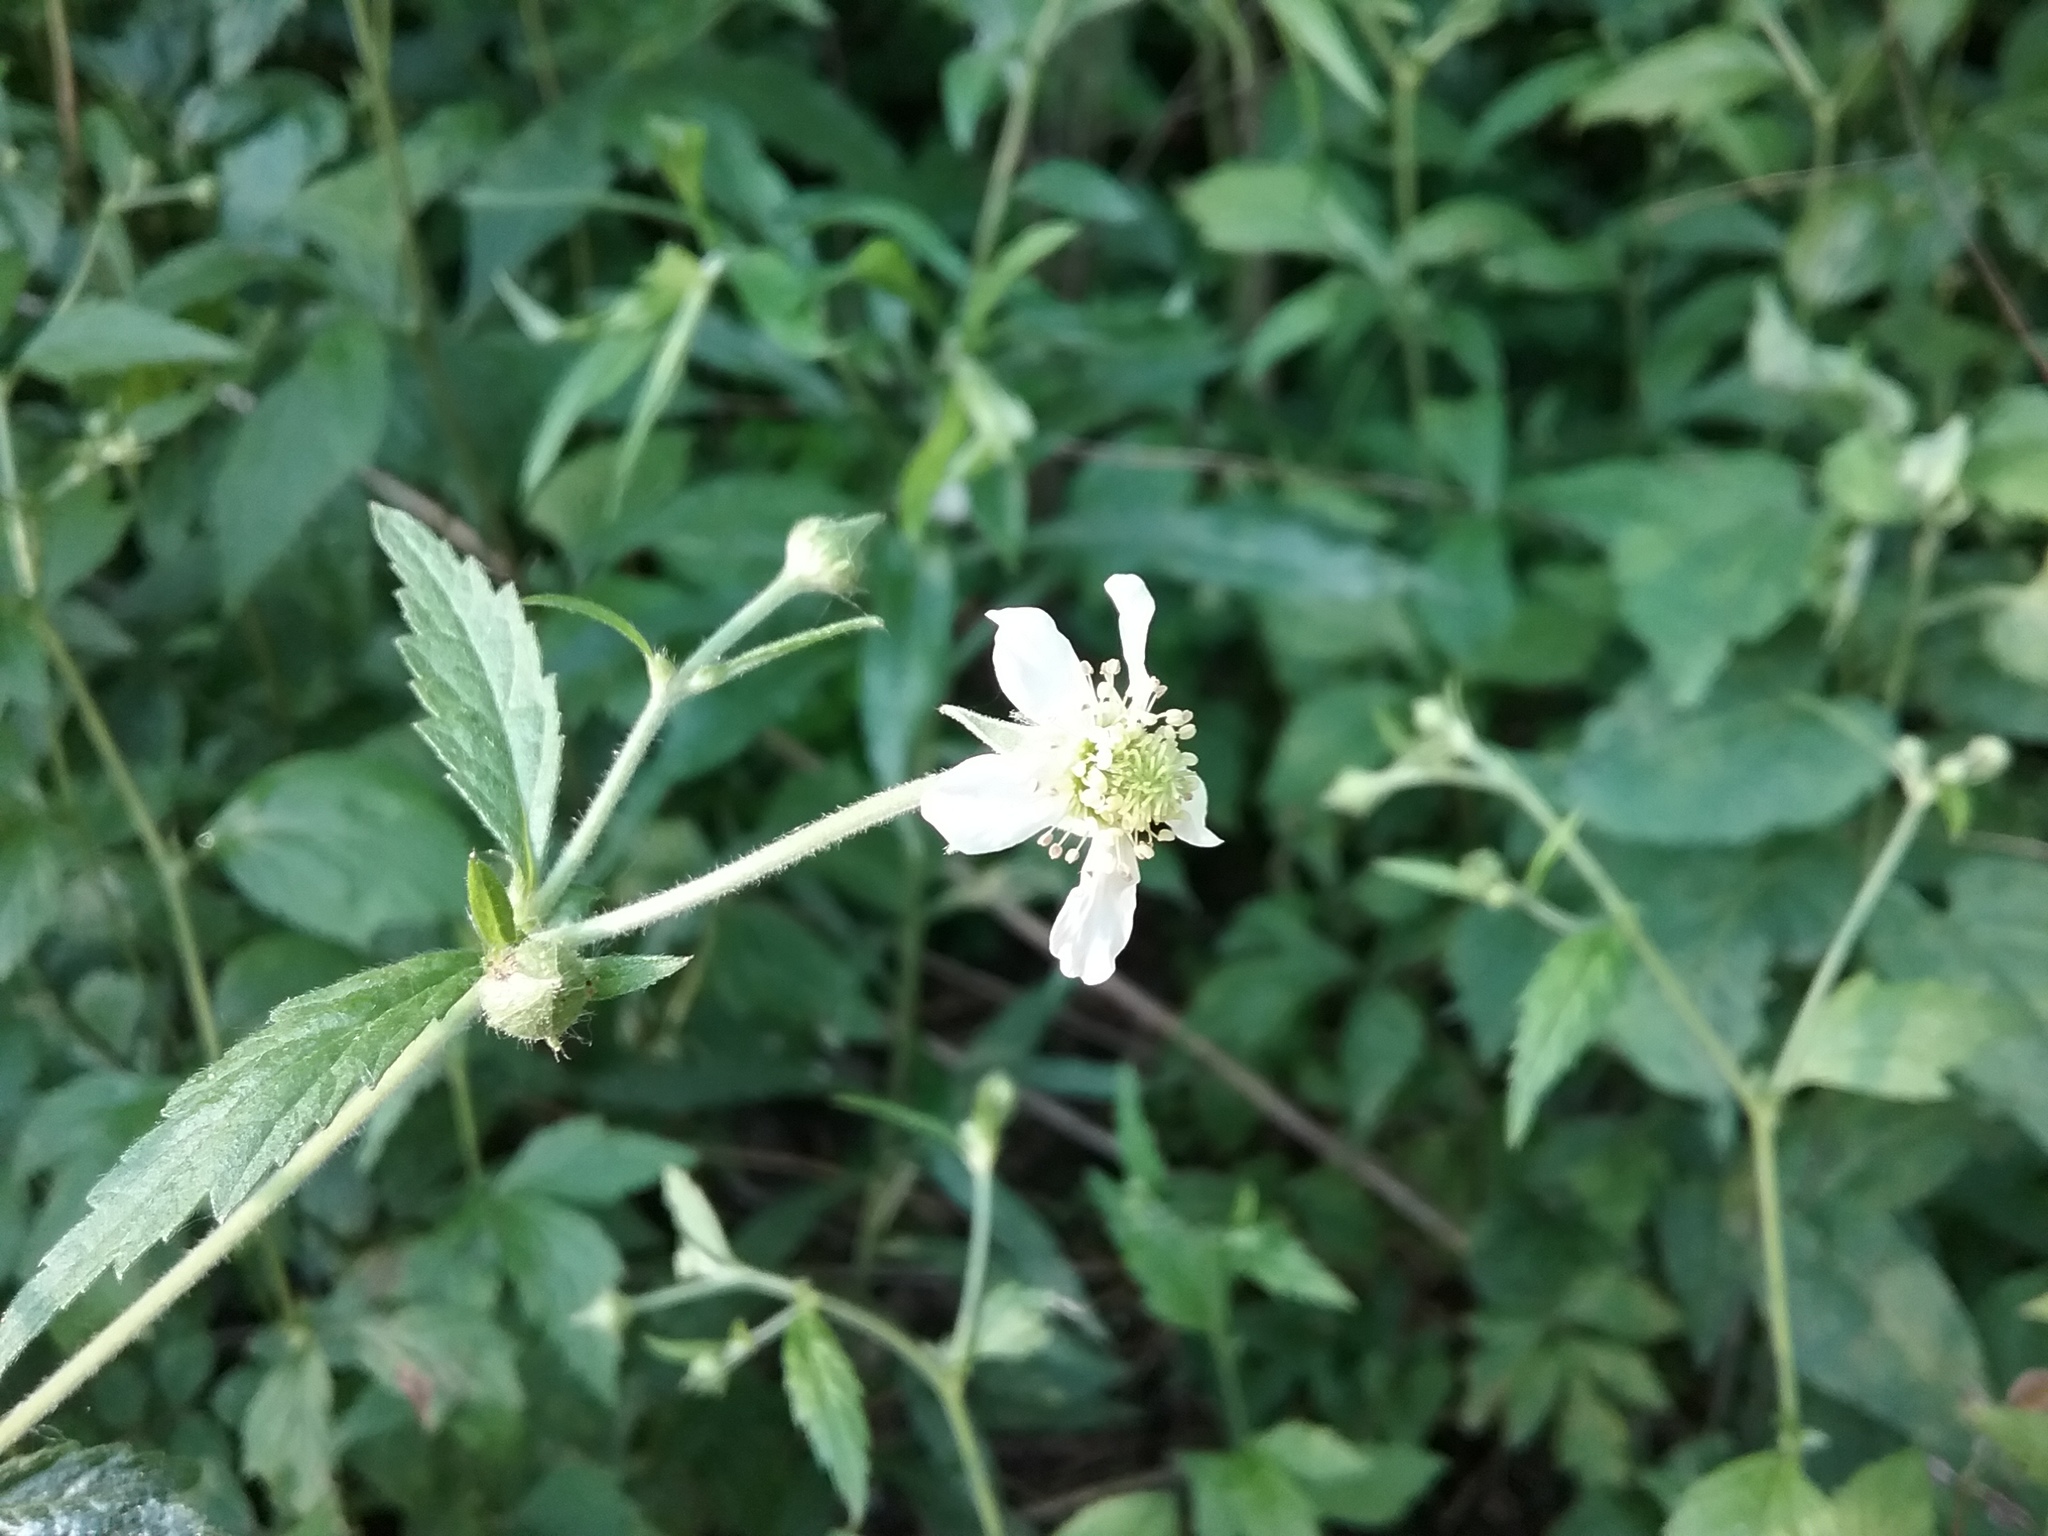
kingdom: Plantae
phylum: Tracheophyta
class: Magnoliopsida
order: Rosales
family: Rosaceae
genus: Geum
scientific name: Geum canadense
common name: White avens
